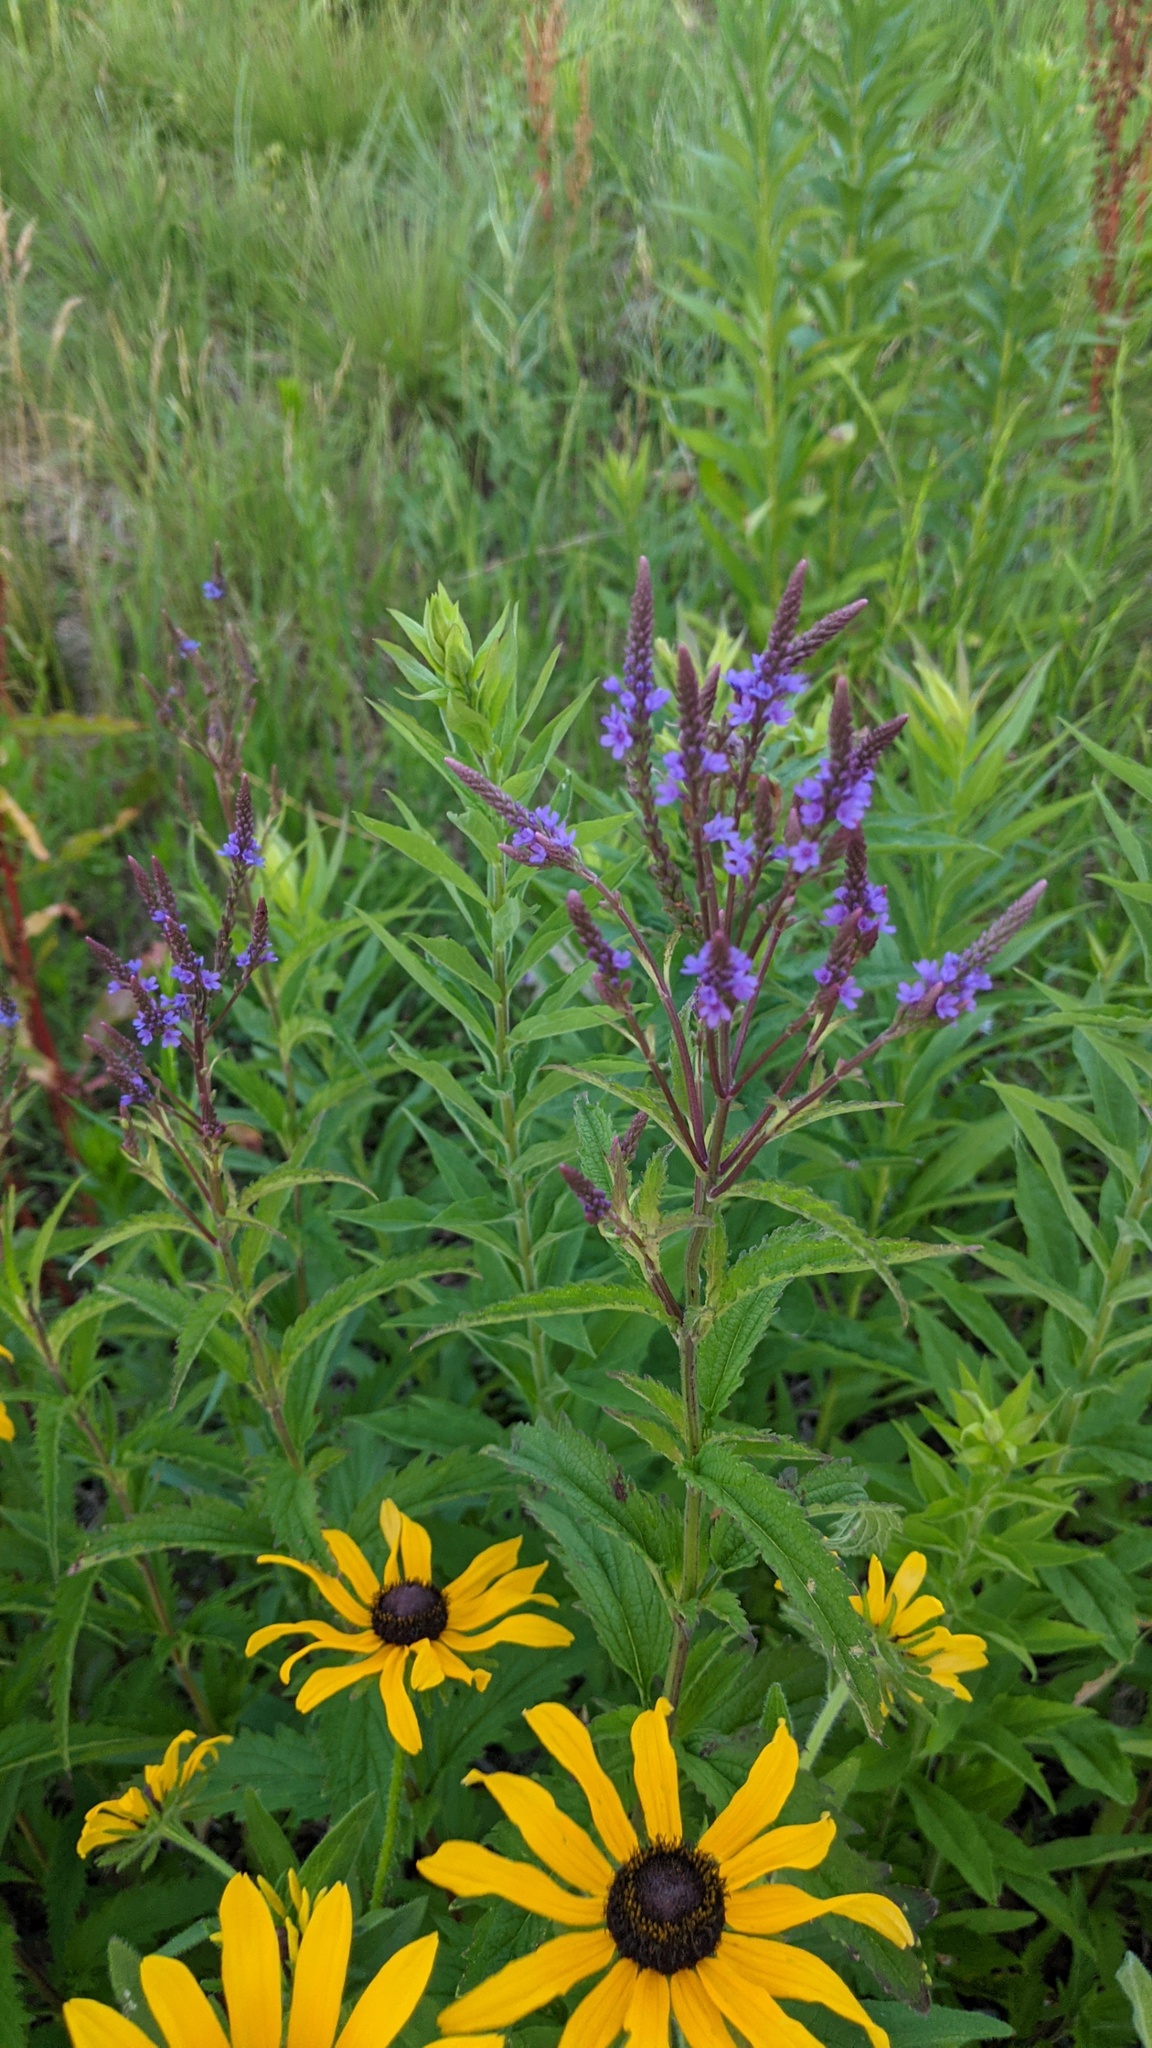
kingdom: Plantae
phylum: Tracheophyta
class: Magnoliopsida
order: Lamiales
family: Verbenaceae
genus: Verbena
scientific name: Verbena hastata
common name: American blue vervain
